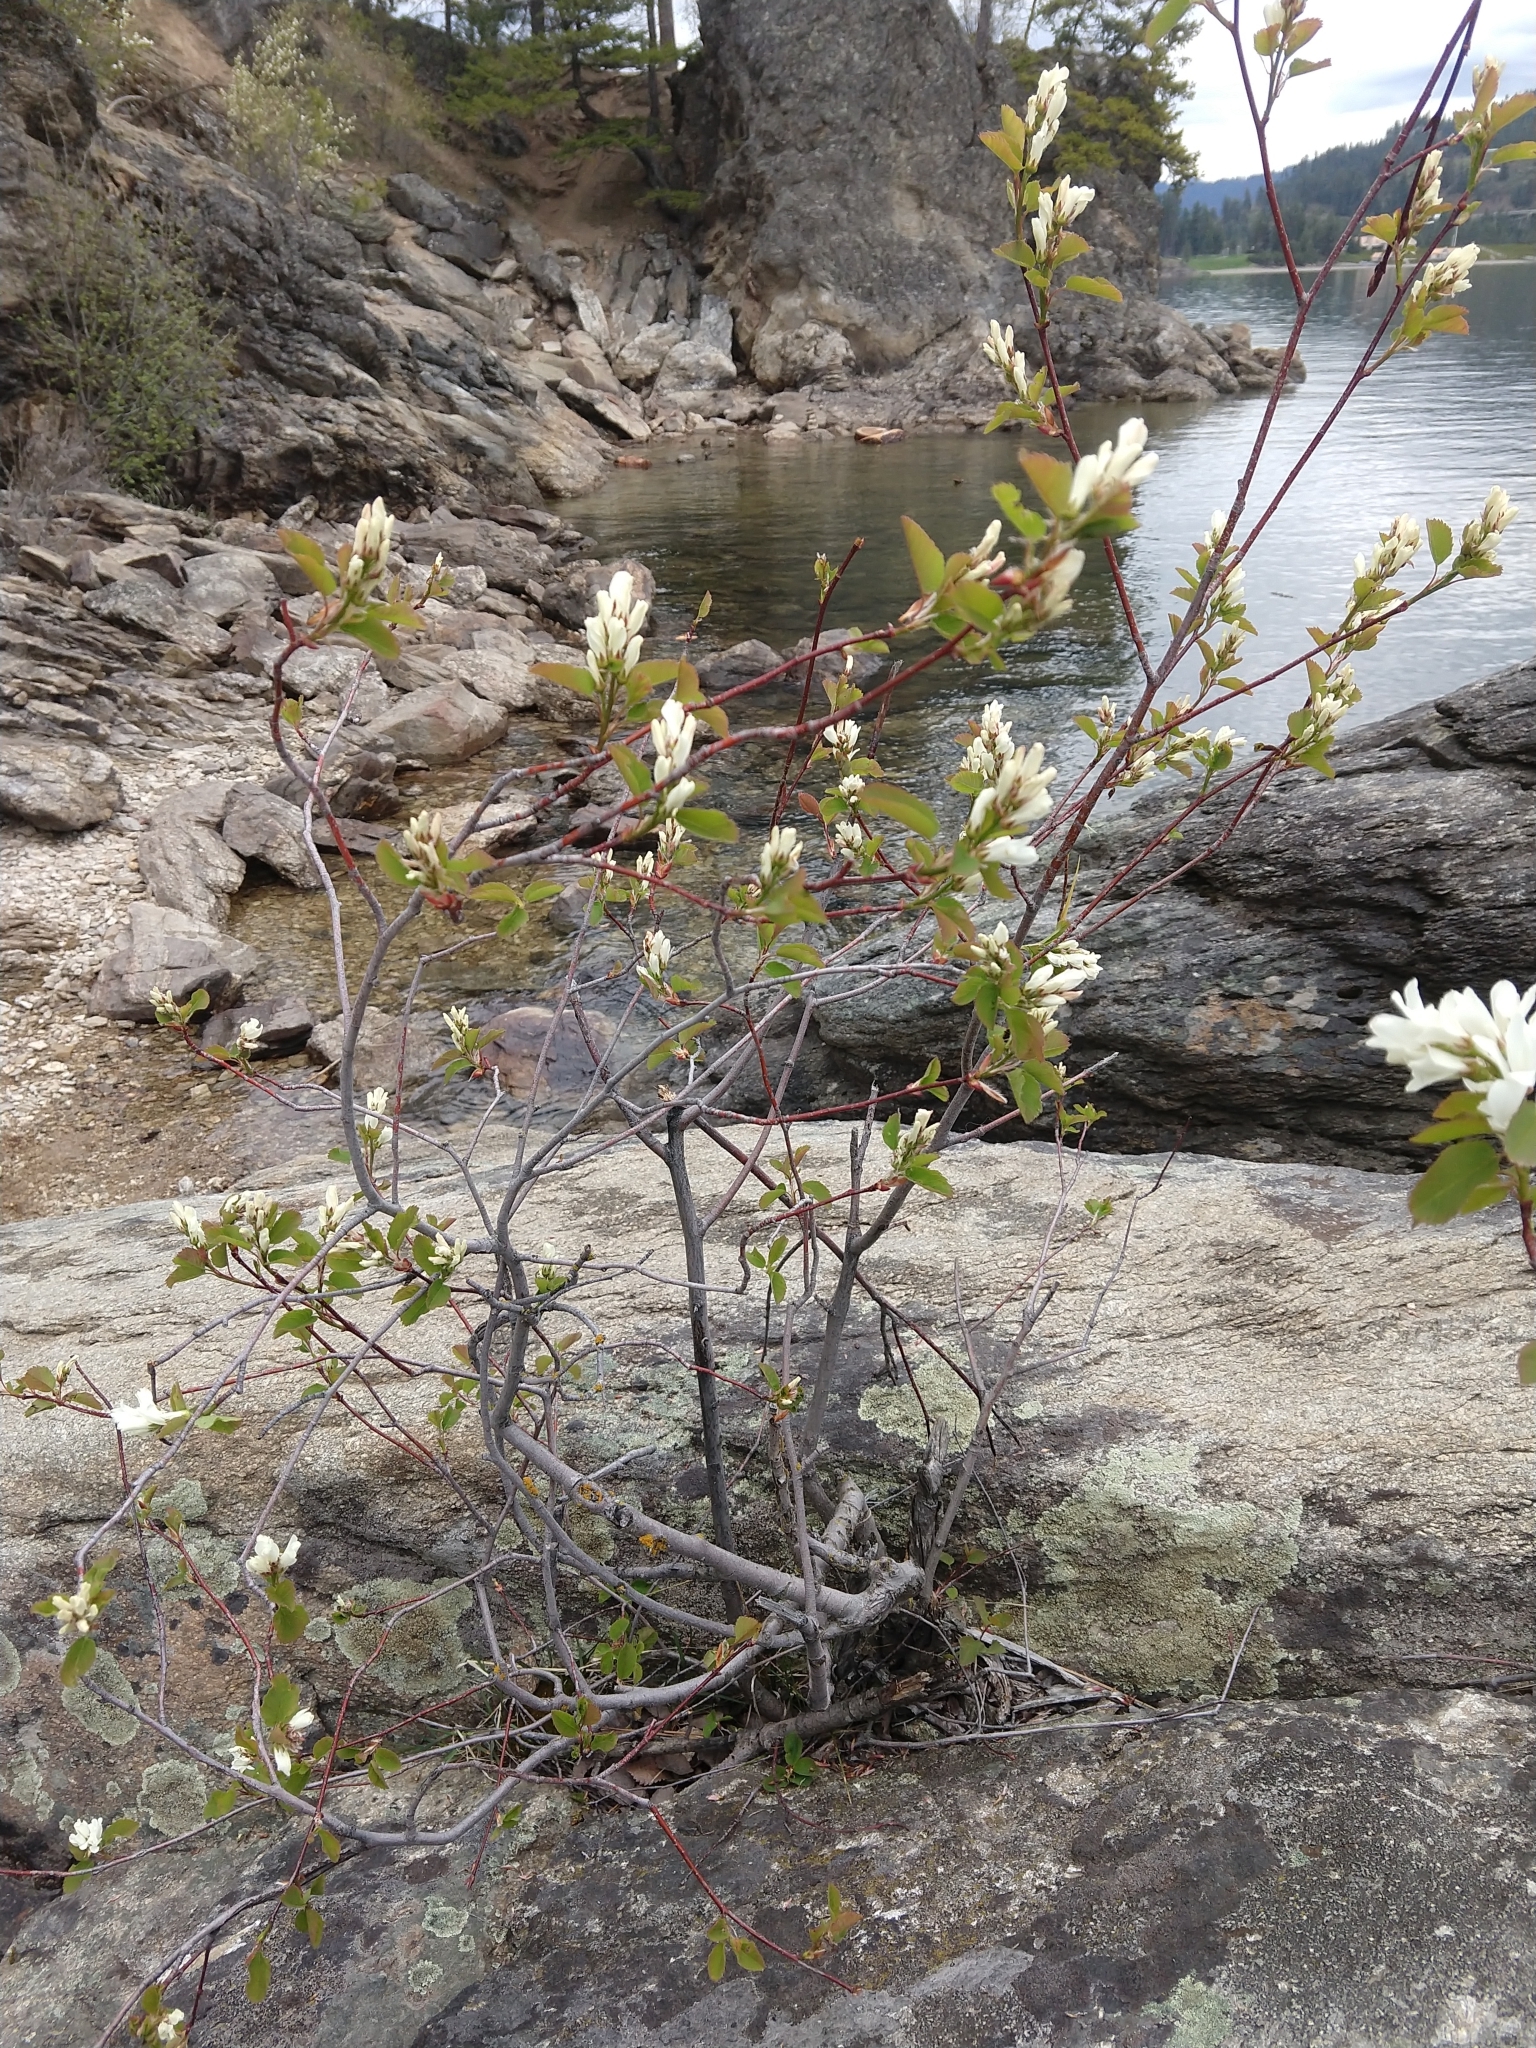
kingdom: Plantae
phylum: Tracheophyta
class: Magnoliopsida
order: Rosales
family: Rosaceae
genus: Amelanchier
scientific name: Amelanchier alnifolia
